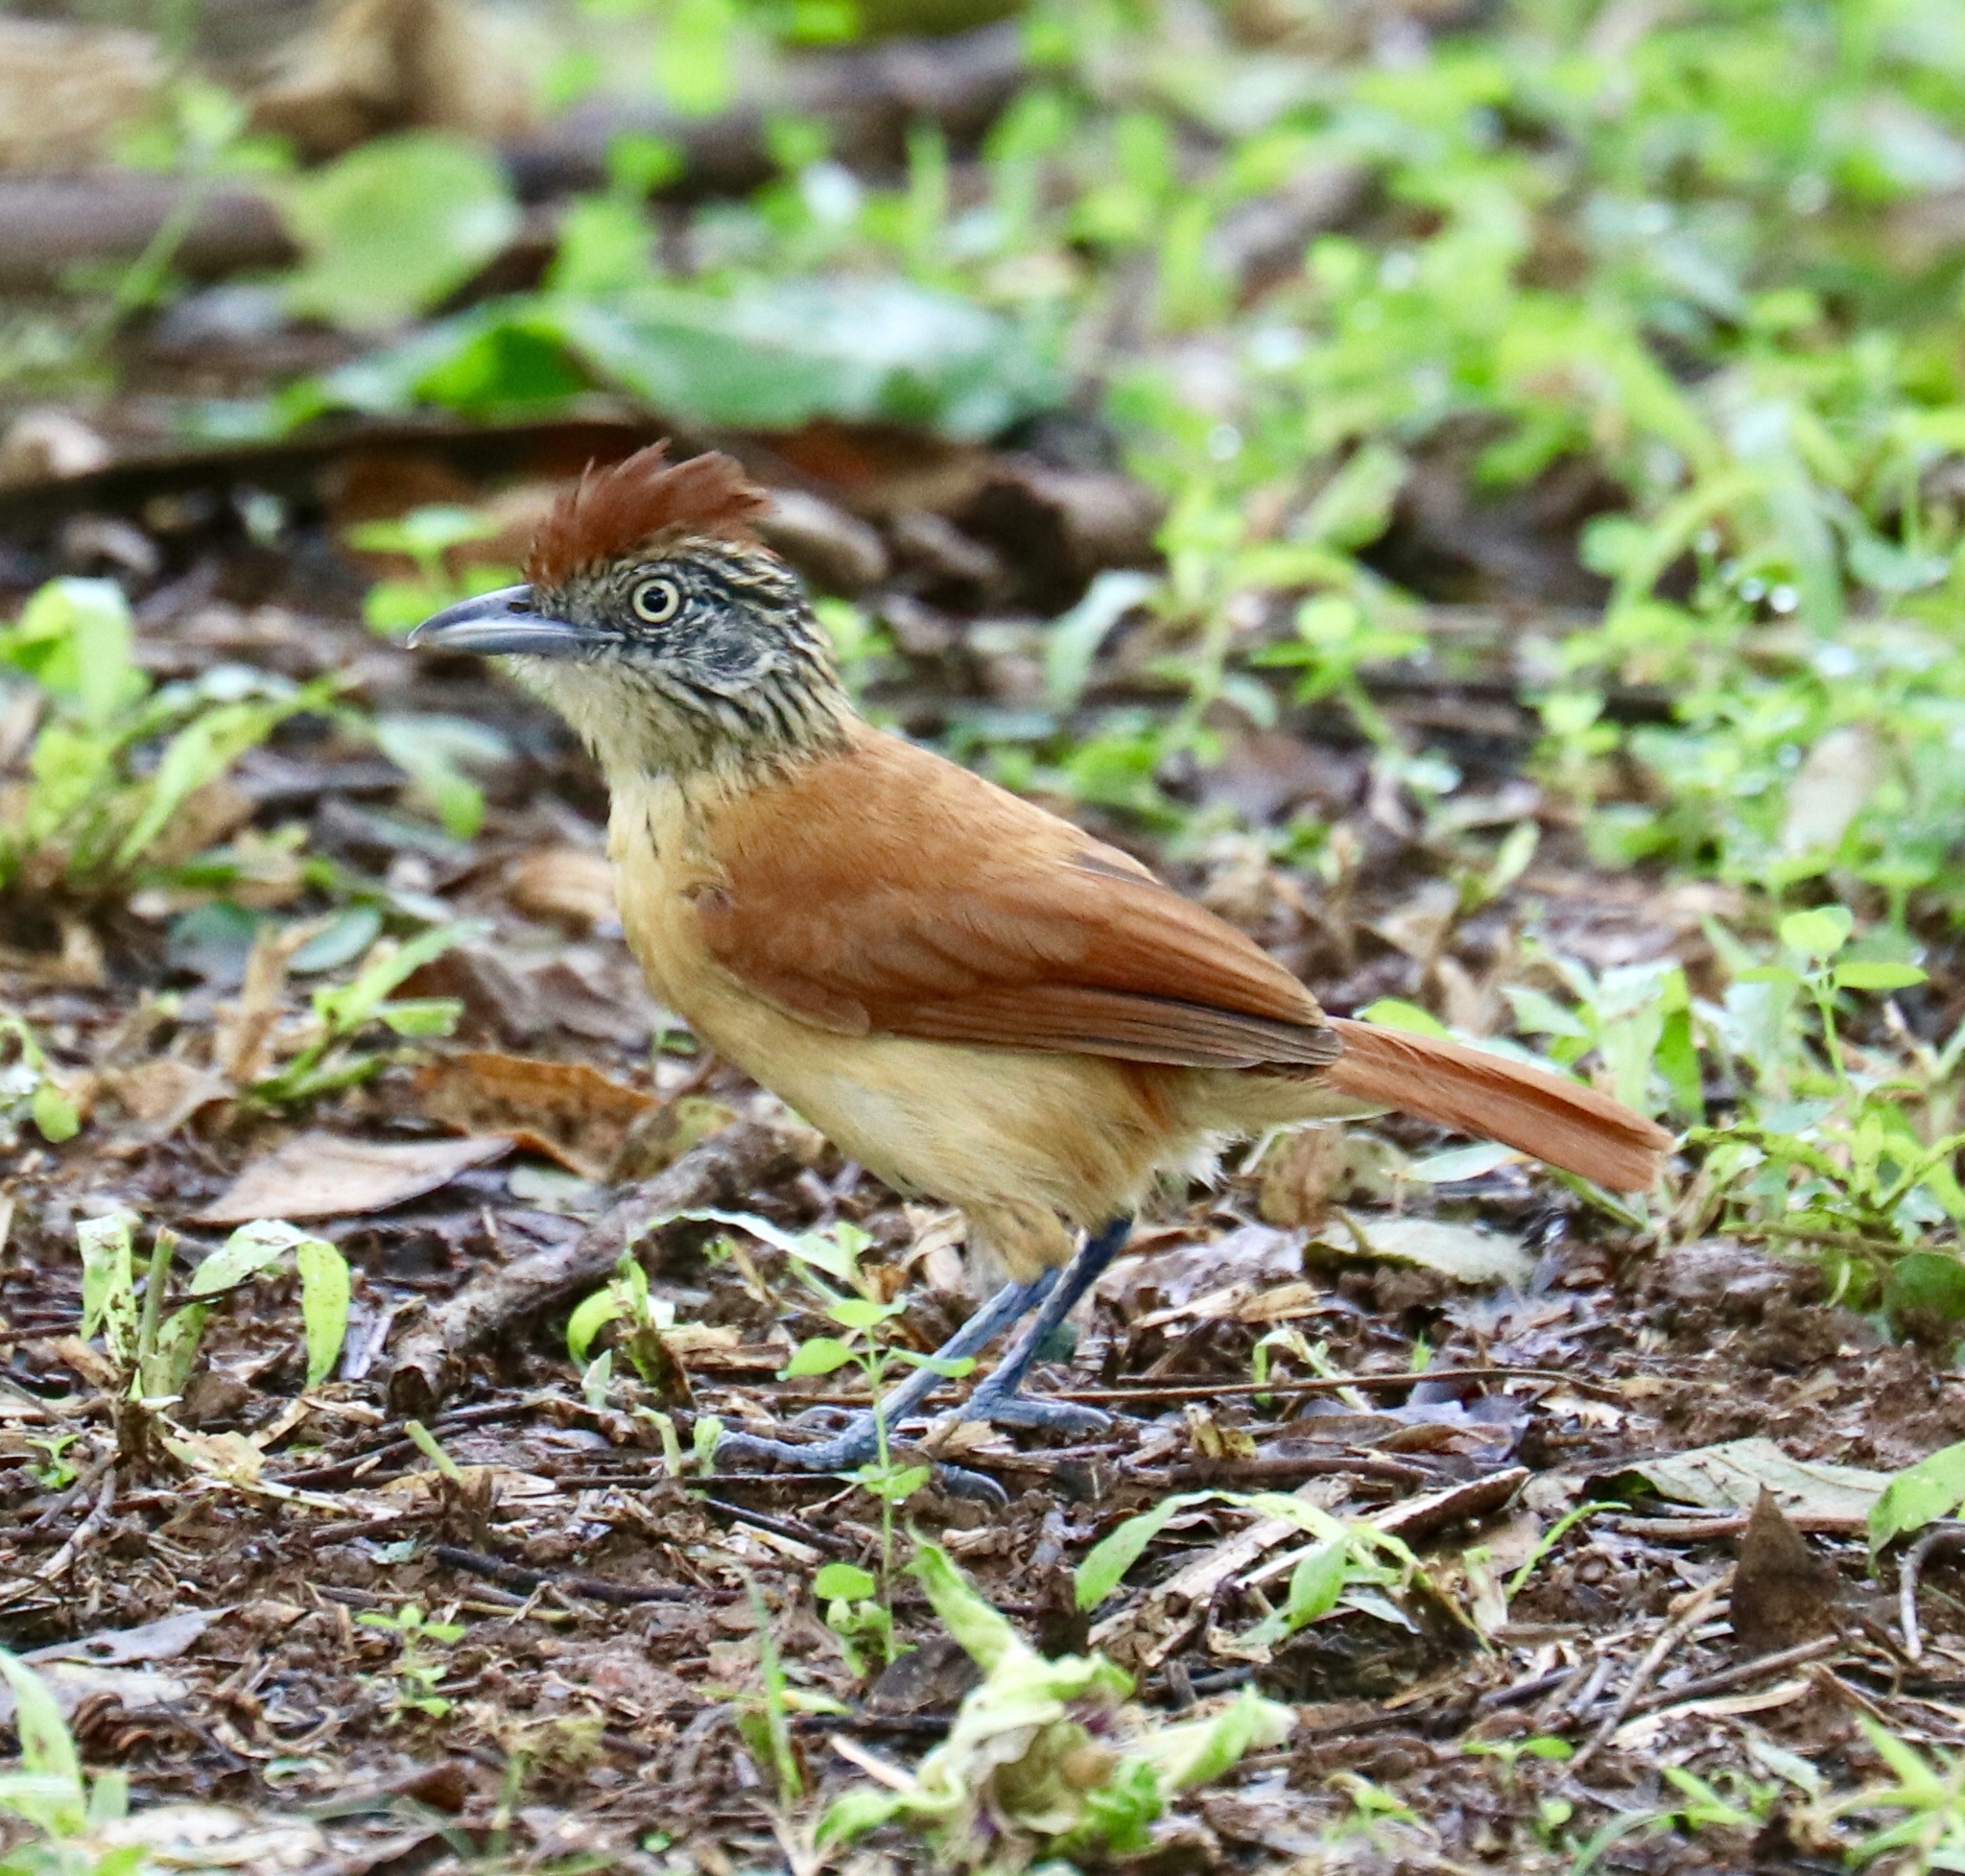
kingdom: Animalia
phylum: Chordata
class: Aves
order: Passeriformes
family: Thamnophilidae
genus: Thamnophilus
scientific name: Thamnophilus doliatus
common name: Barred antshrike
